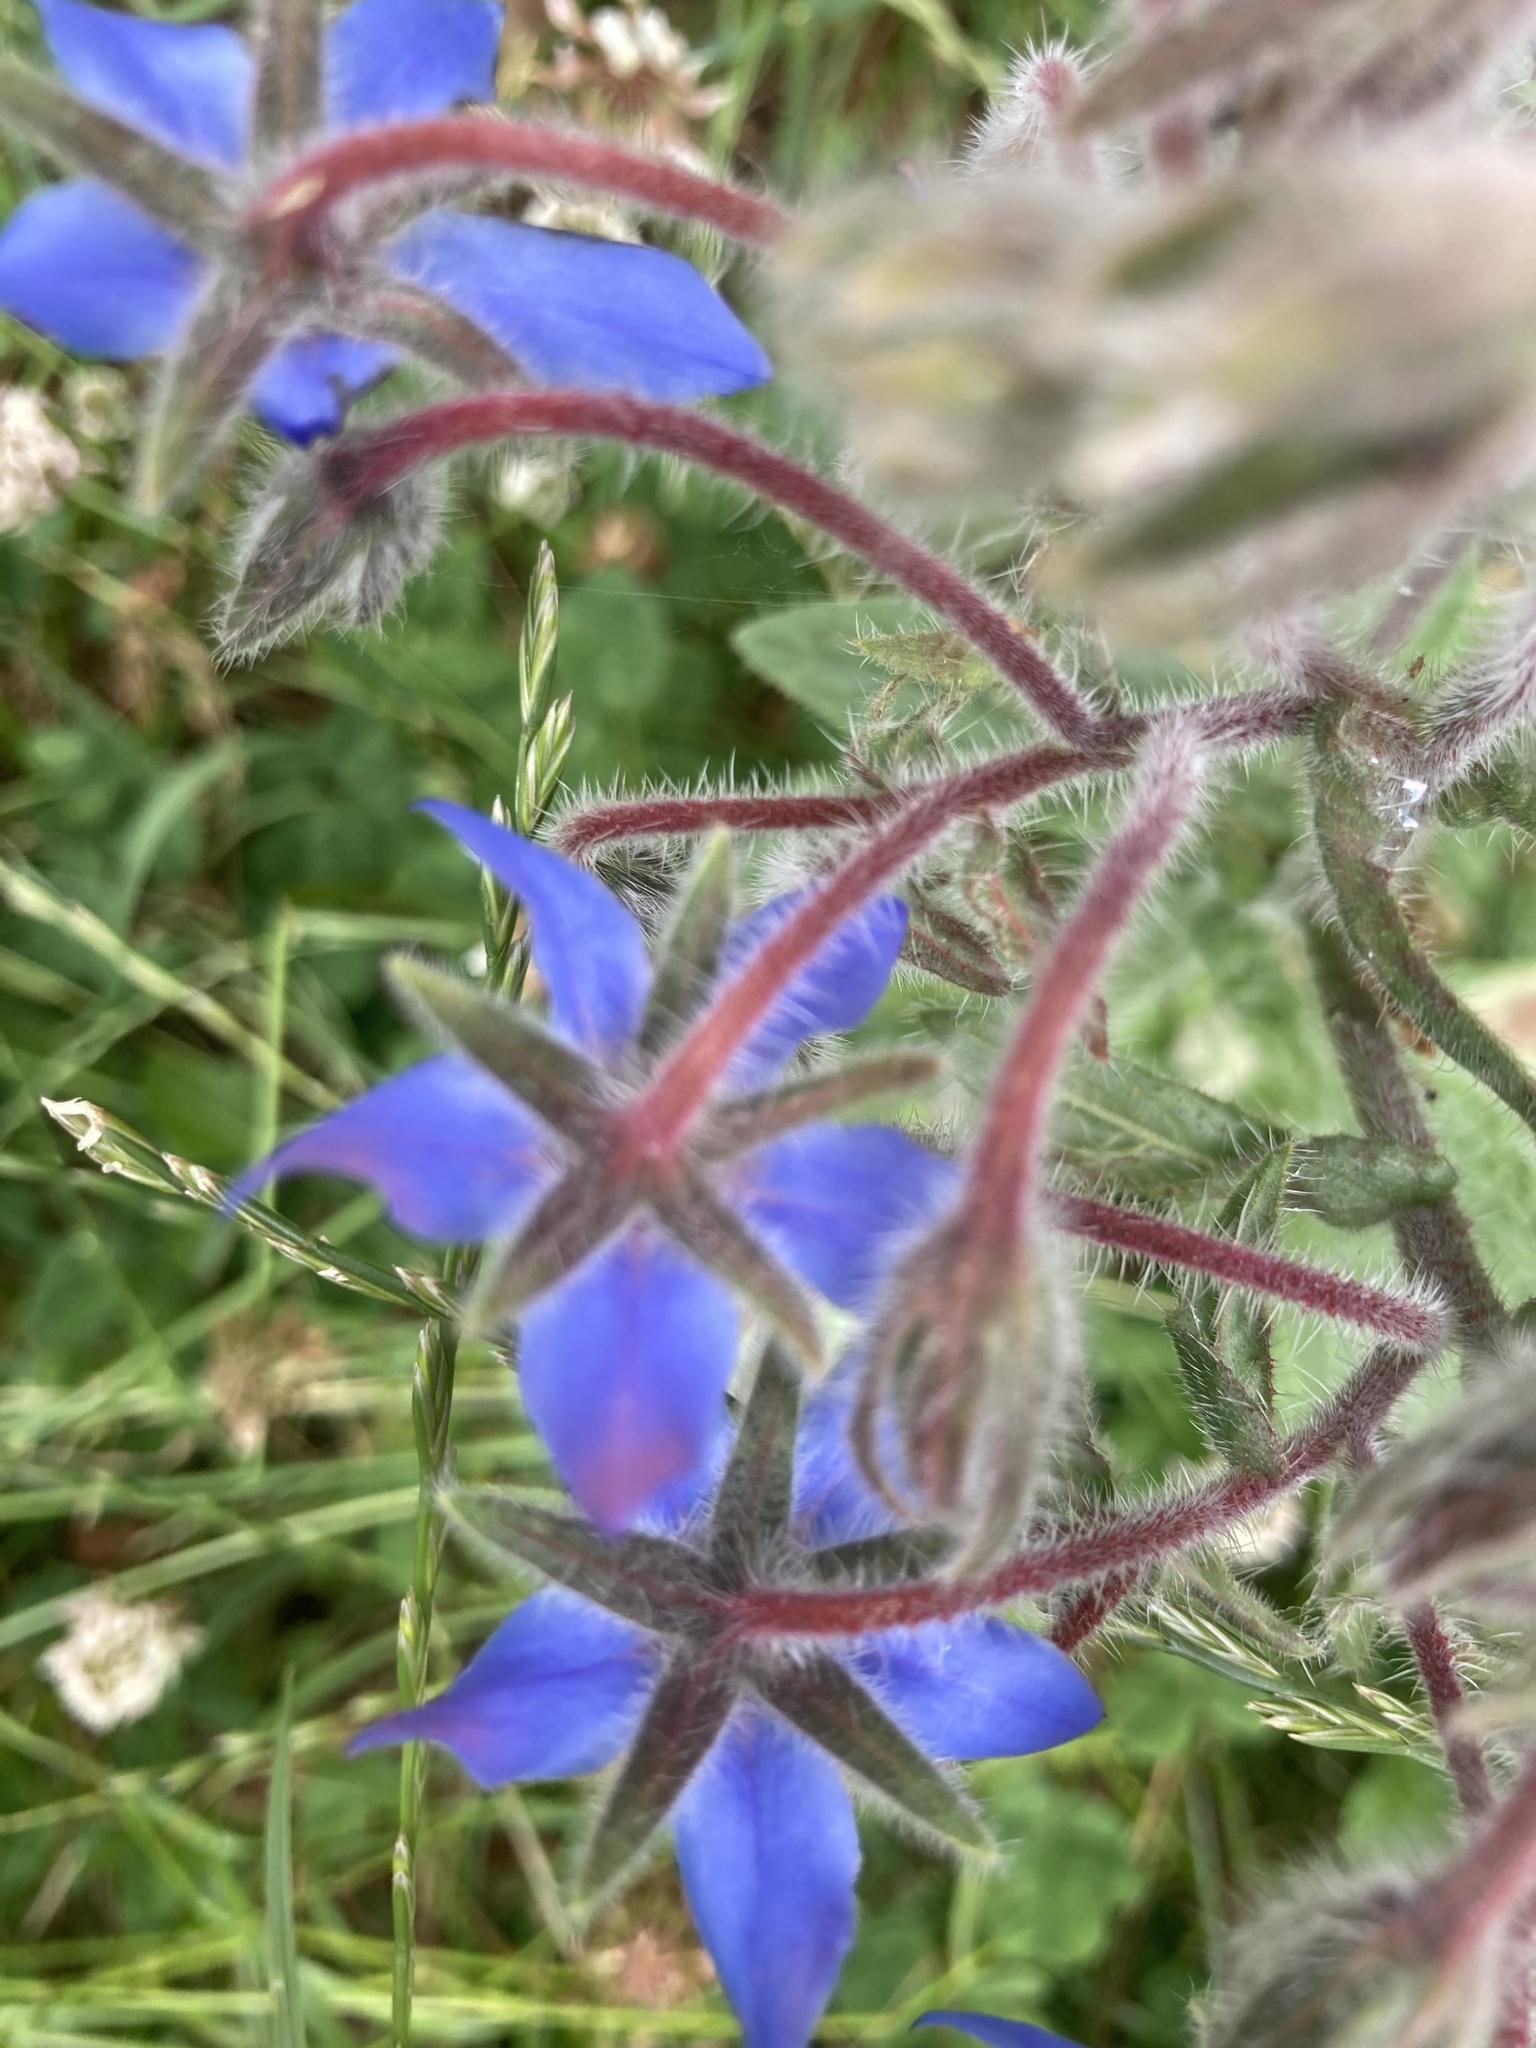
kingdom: Plantae
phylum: Tracheophyta
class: Magnoliopsida
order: Boraginales
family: Boraginaceae
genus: Borago
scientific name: Borago officinalis
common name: Borage
